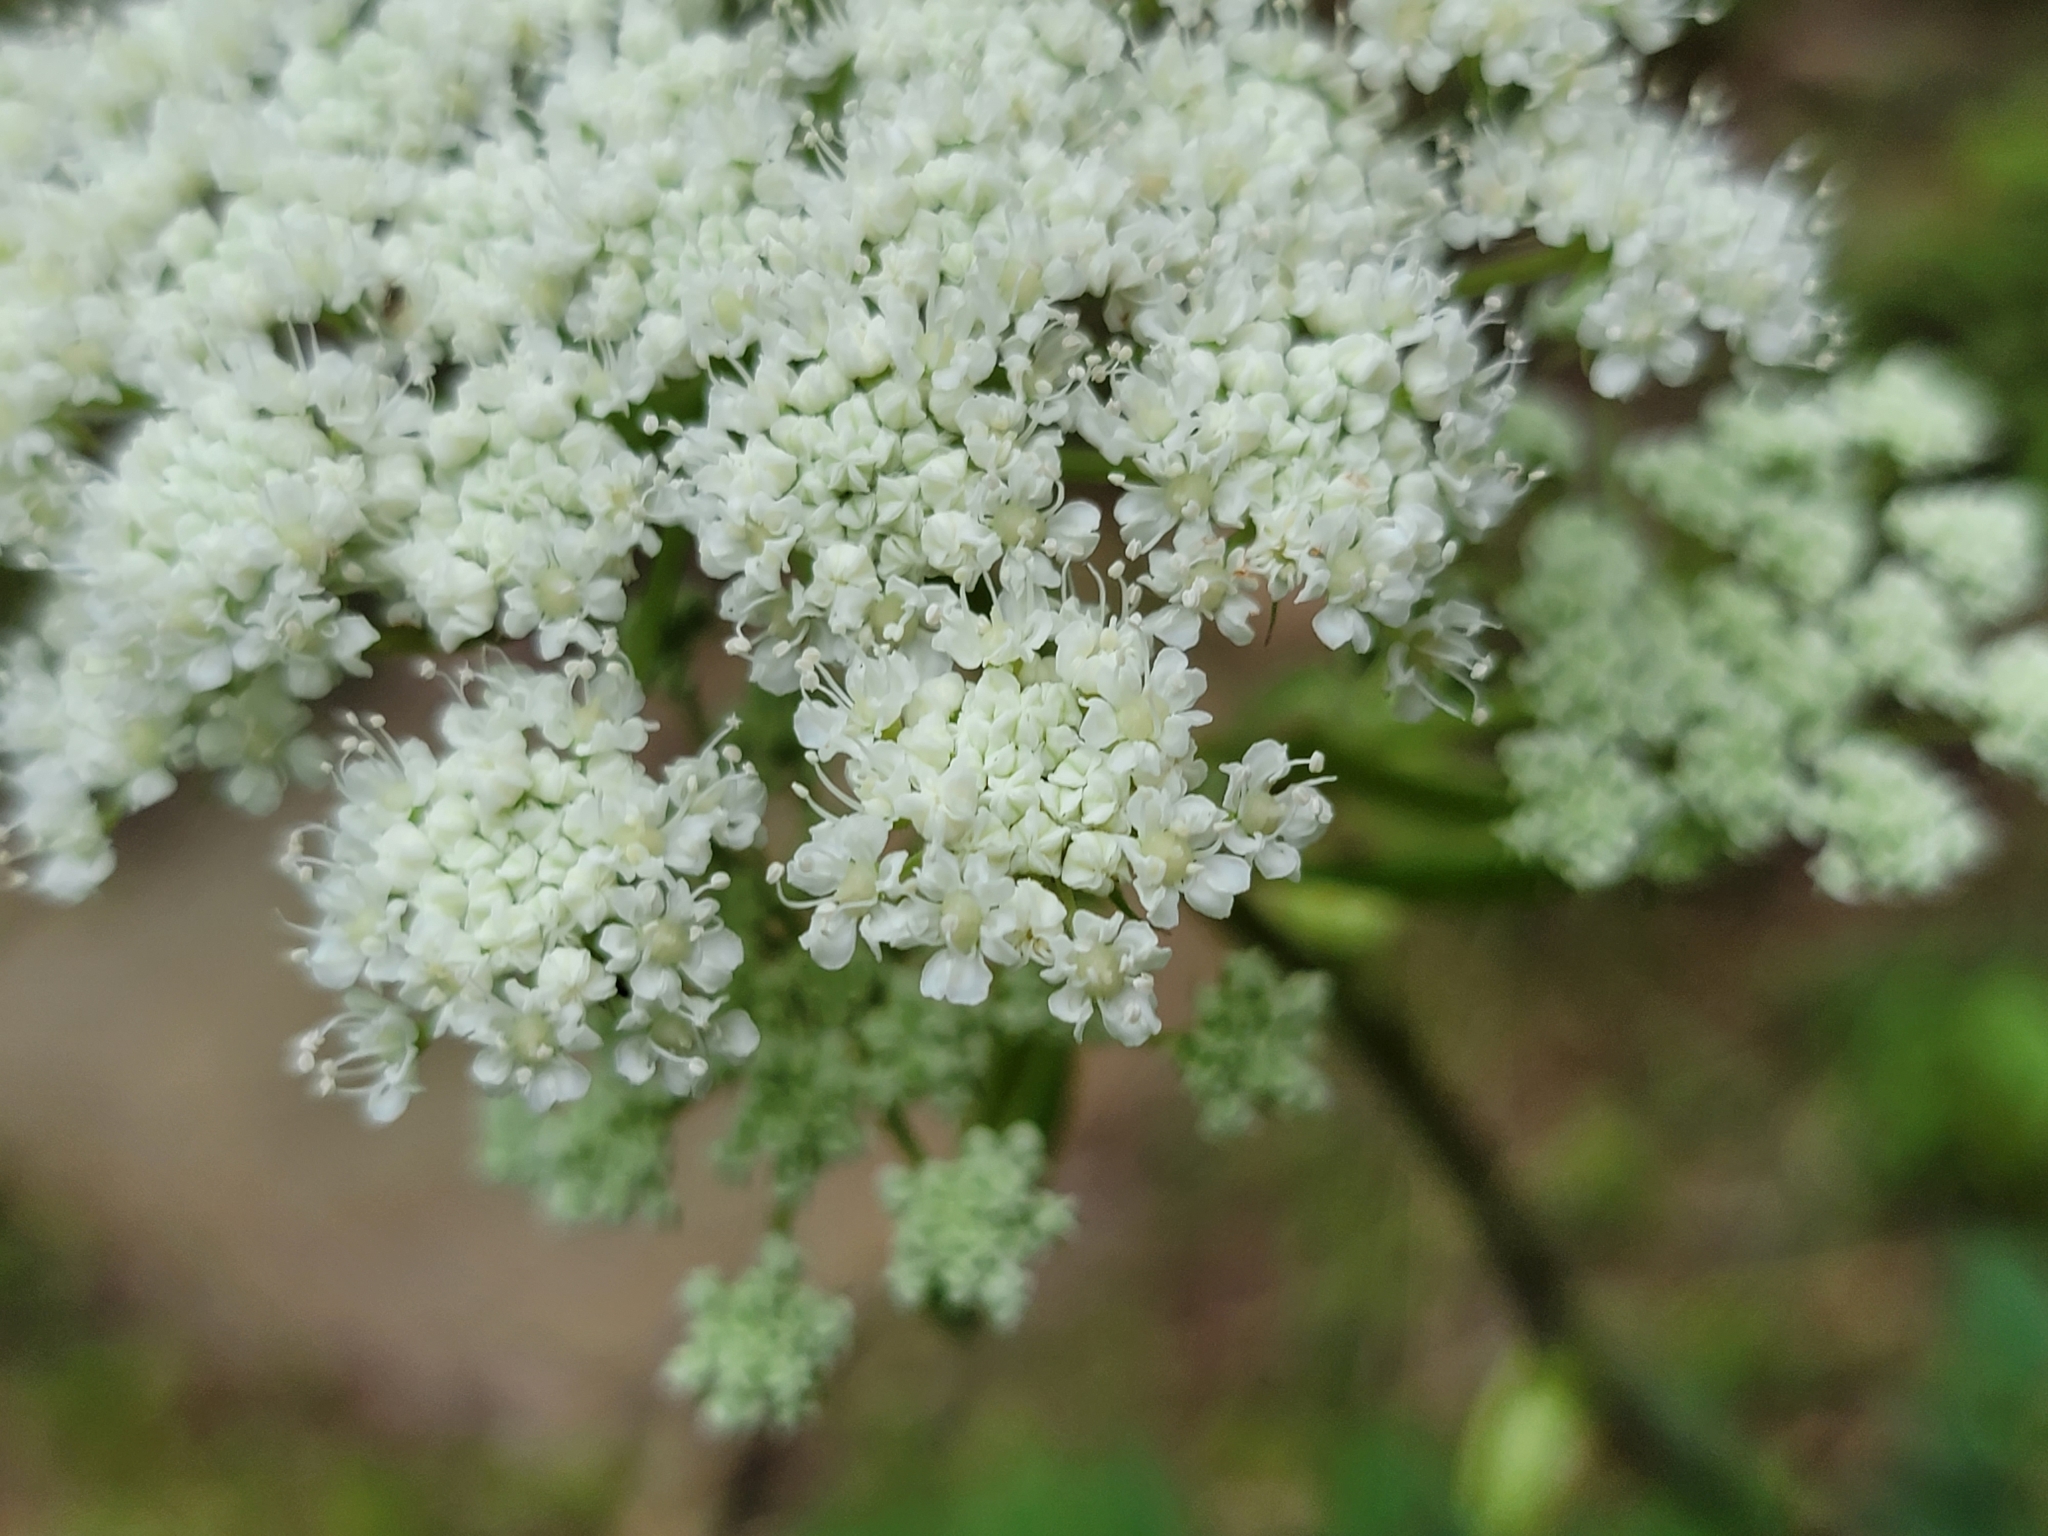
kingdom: Plantae
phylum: Tracheophyta
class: Magnoliopsida
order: Apiales
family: Apiaceae
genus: Angelica
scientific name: Angelica venenosa
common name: Hairy angelica
